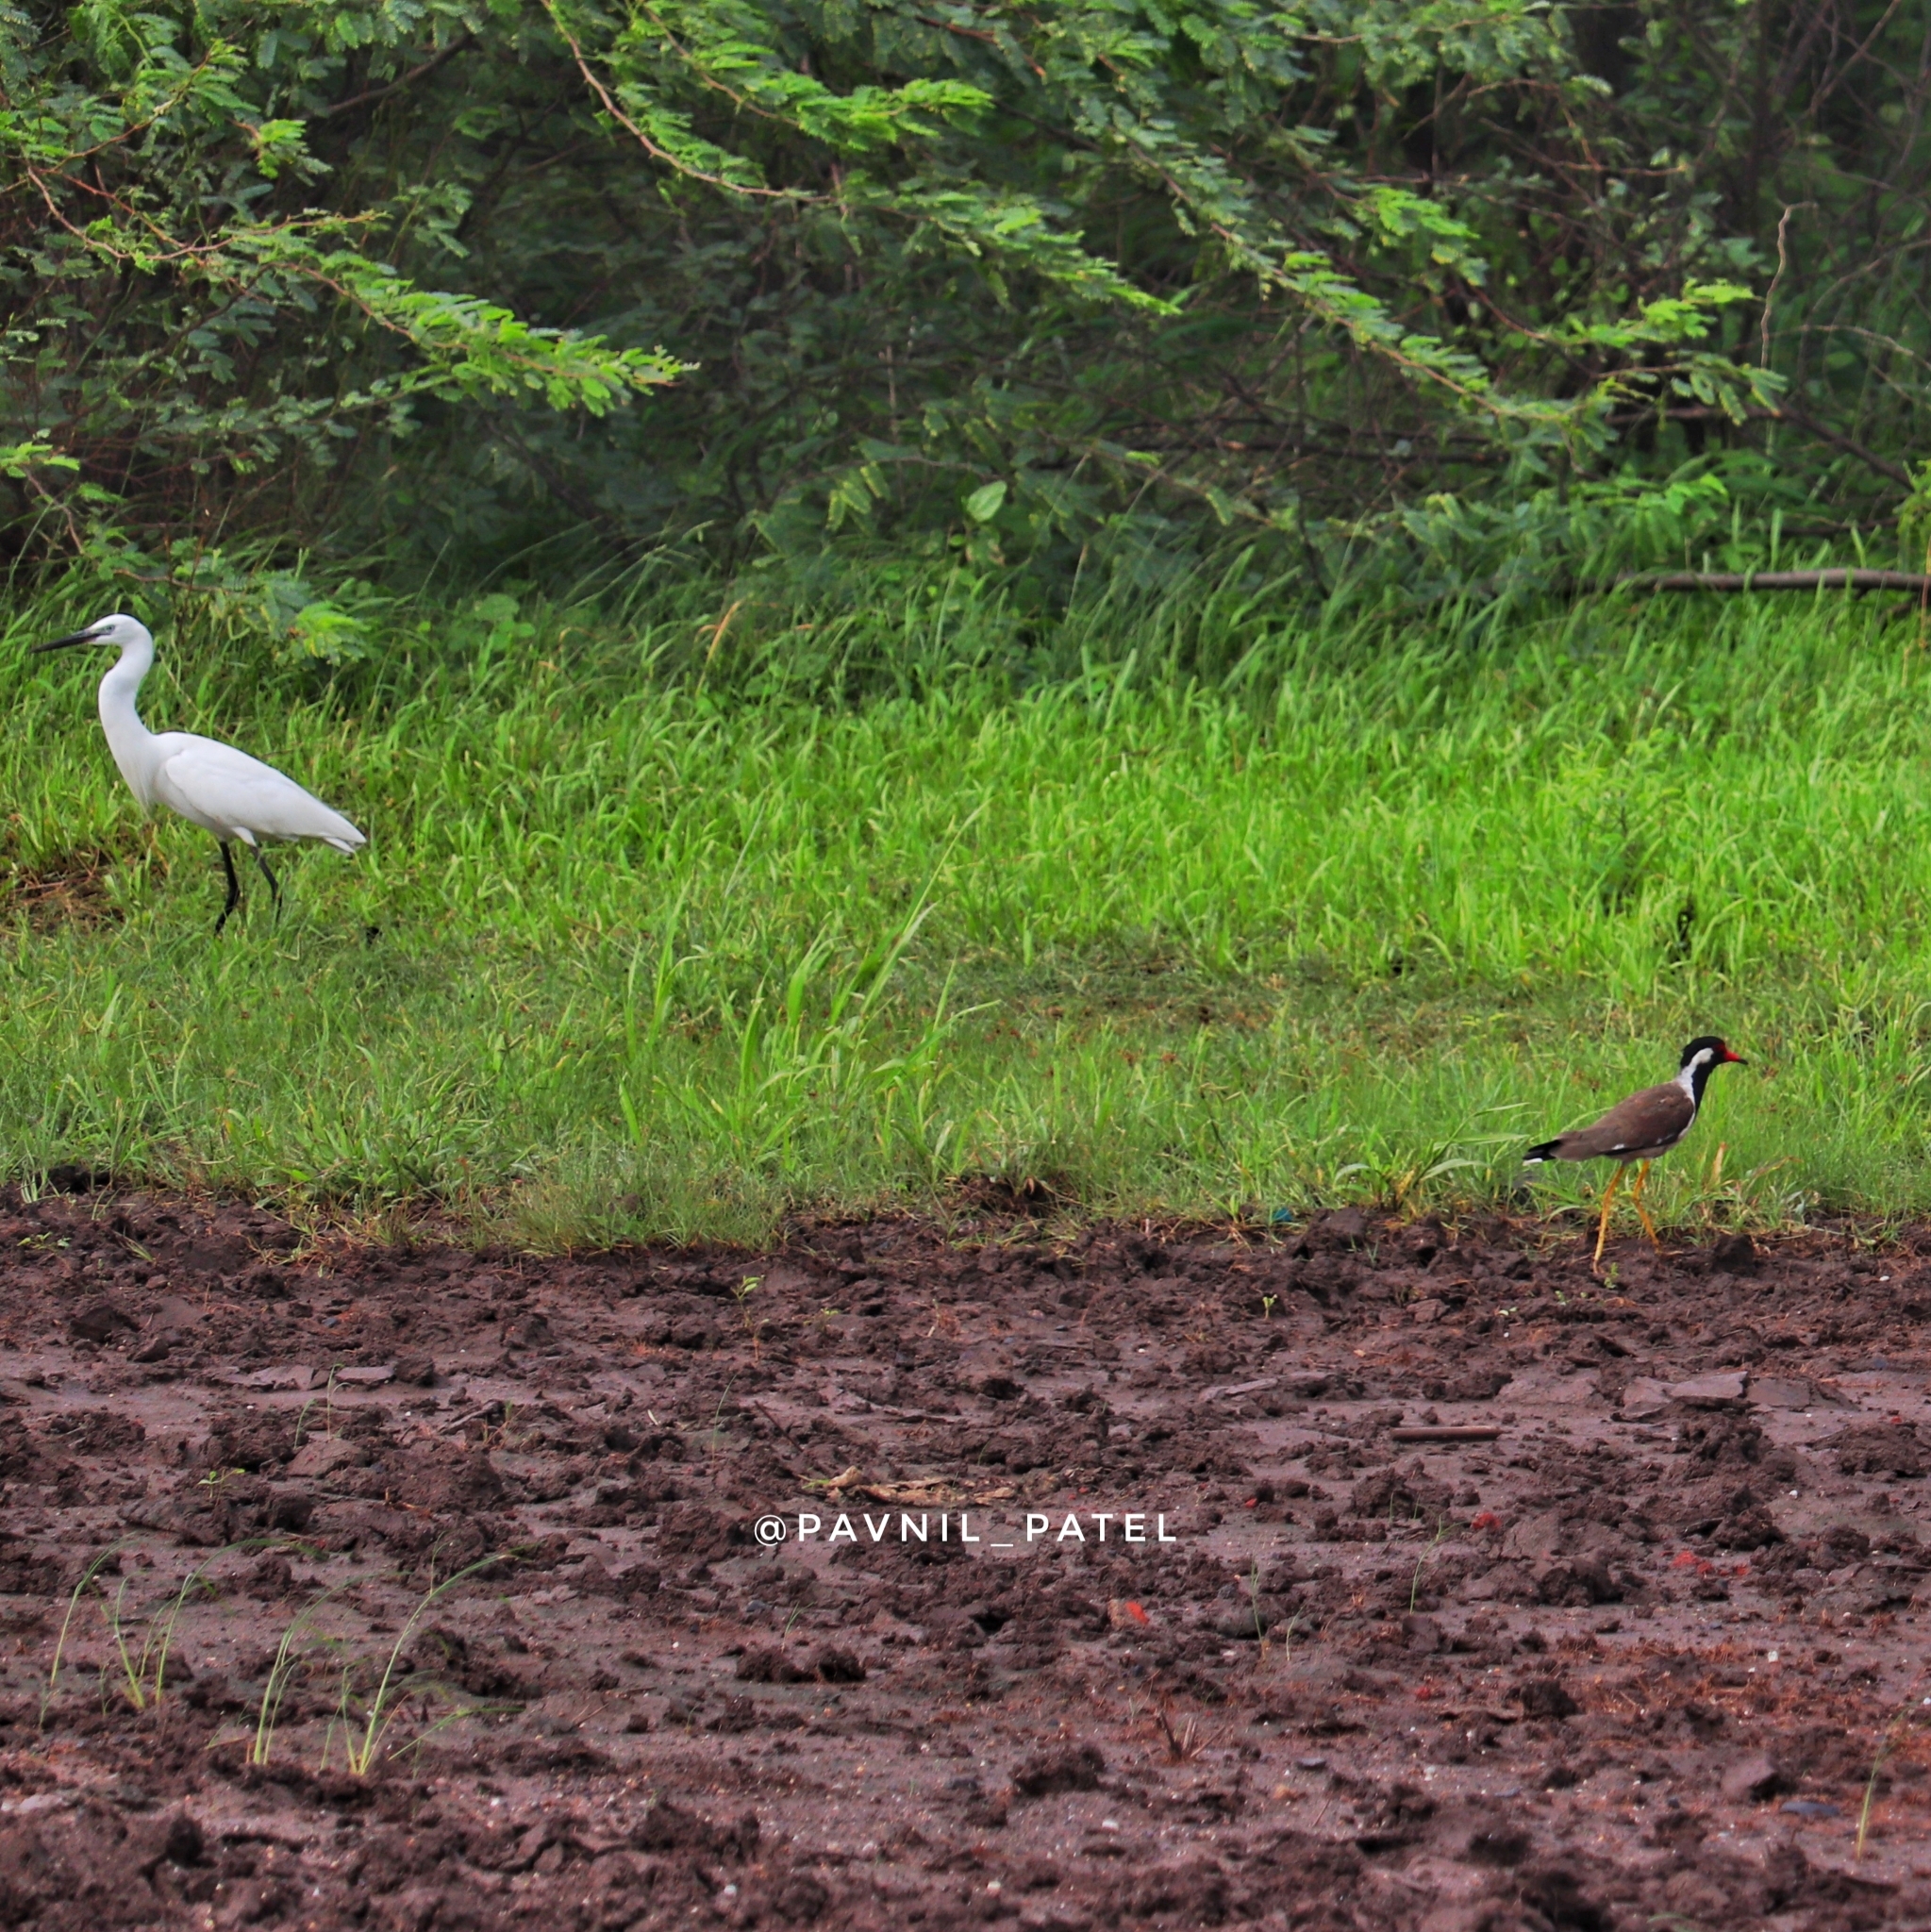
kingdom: Animalia
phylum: Chordata
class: Aves
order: Charadriiformes
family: Charadriidae
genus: Vanellus
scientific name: Vanellus indicus
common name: Red-wattled lapwing
